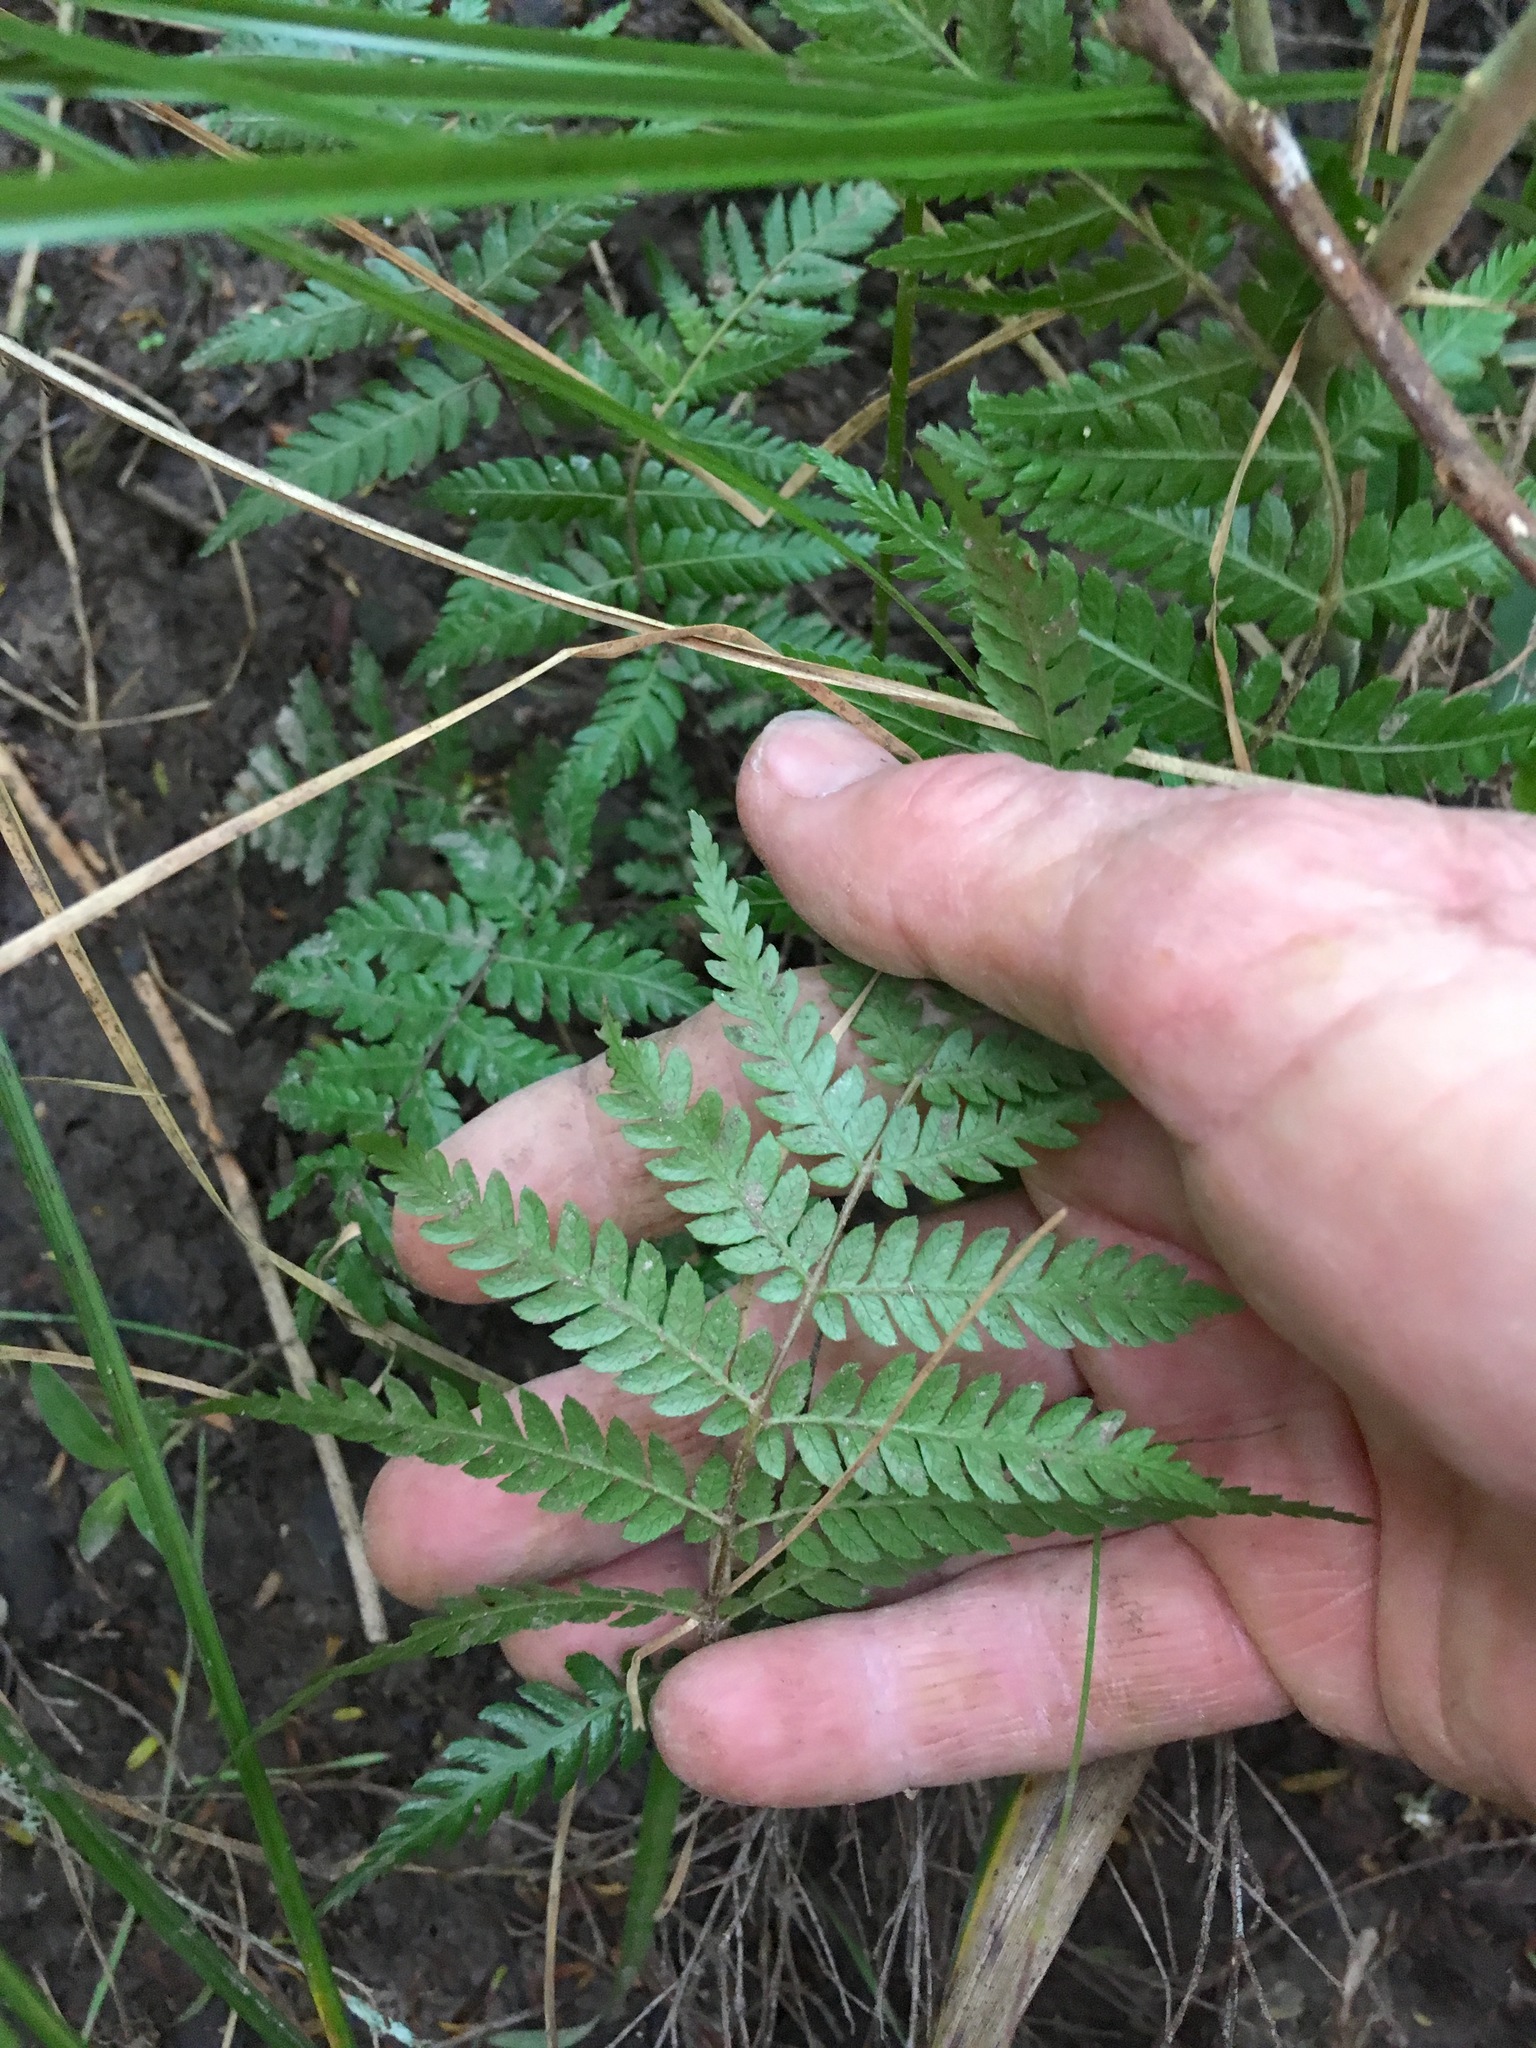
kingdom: Plantae
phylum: Tracheophyta
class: Polypodiopsida
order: Cyatheales
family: Cyatheaceae
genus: Alsophila
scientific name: Alsophila dealbata
